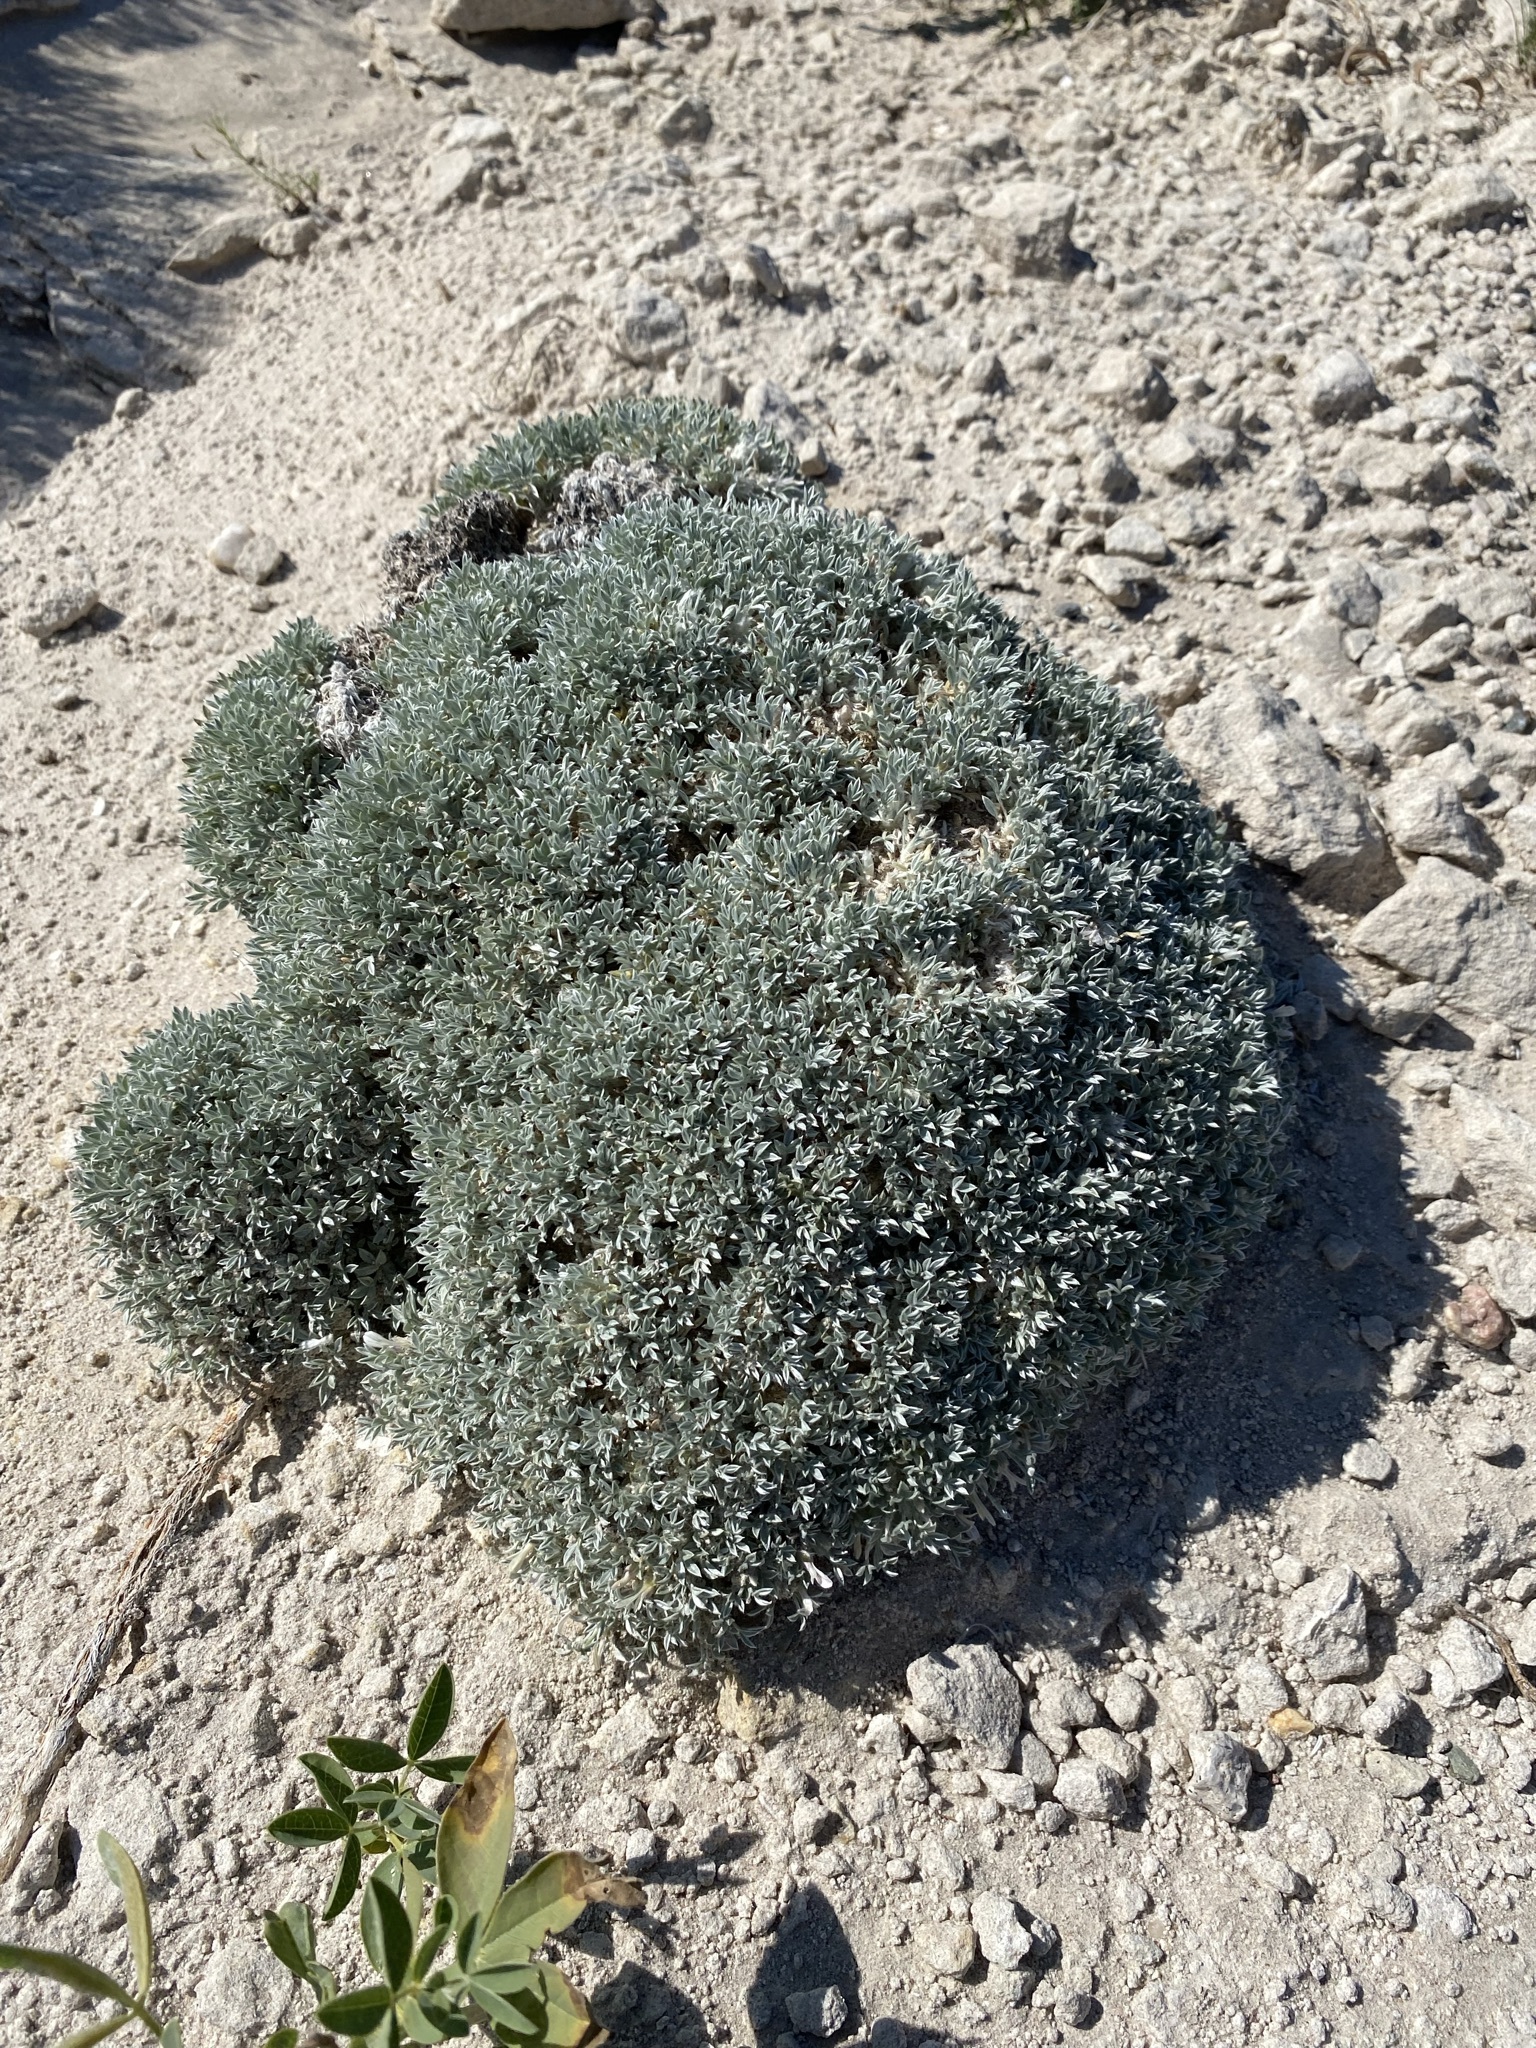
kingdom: Plantae
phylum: Tracheophyta
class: Magnoliopsida
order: Fabales
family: Fabaceae
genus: Astragalus
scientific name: Astragalus hyalinus
